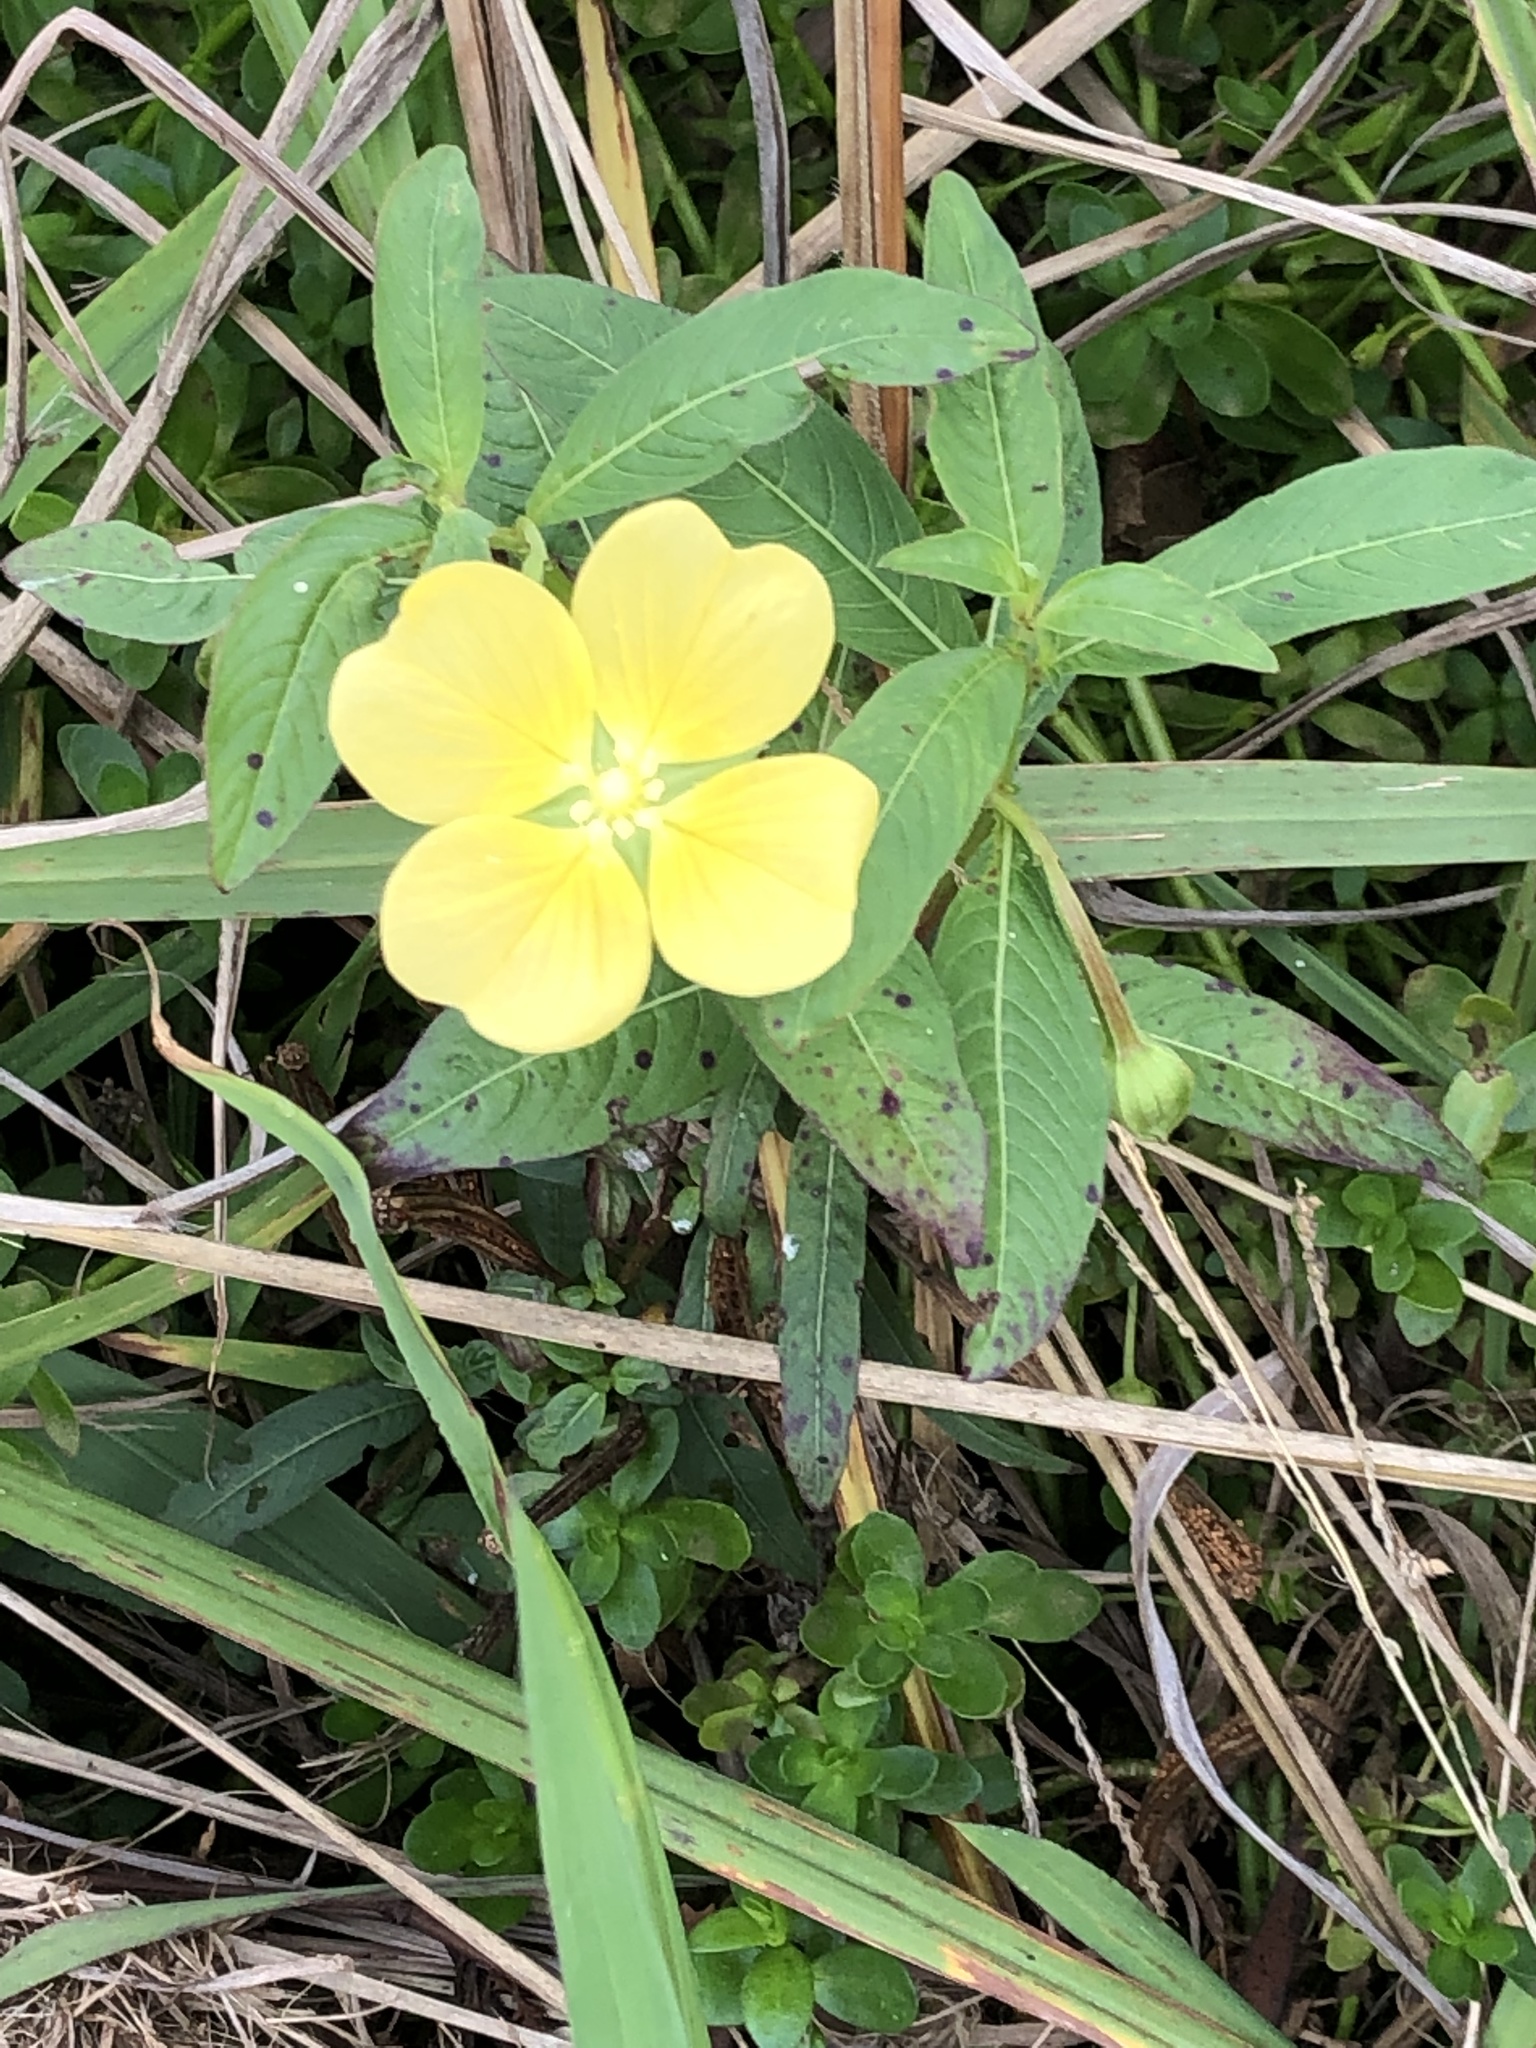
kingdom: Plantae
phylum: Tracheophyta
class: Magnoliopsida
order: Myrtales
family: Onagraceae
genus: Ludwigia
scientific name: Ludwigia octovalvis
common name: Water-primrose
